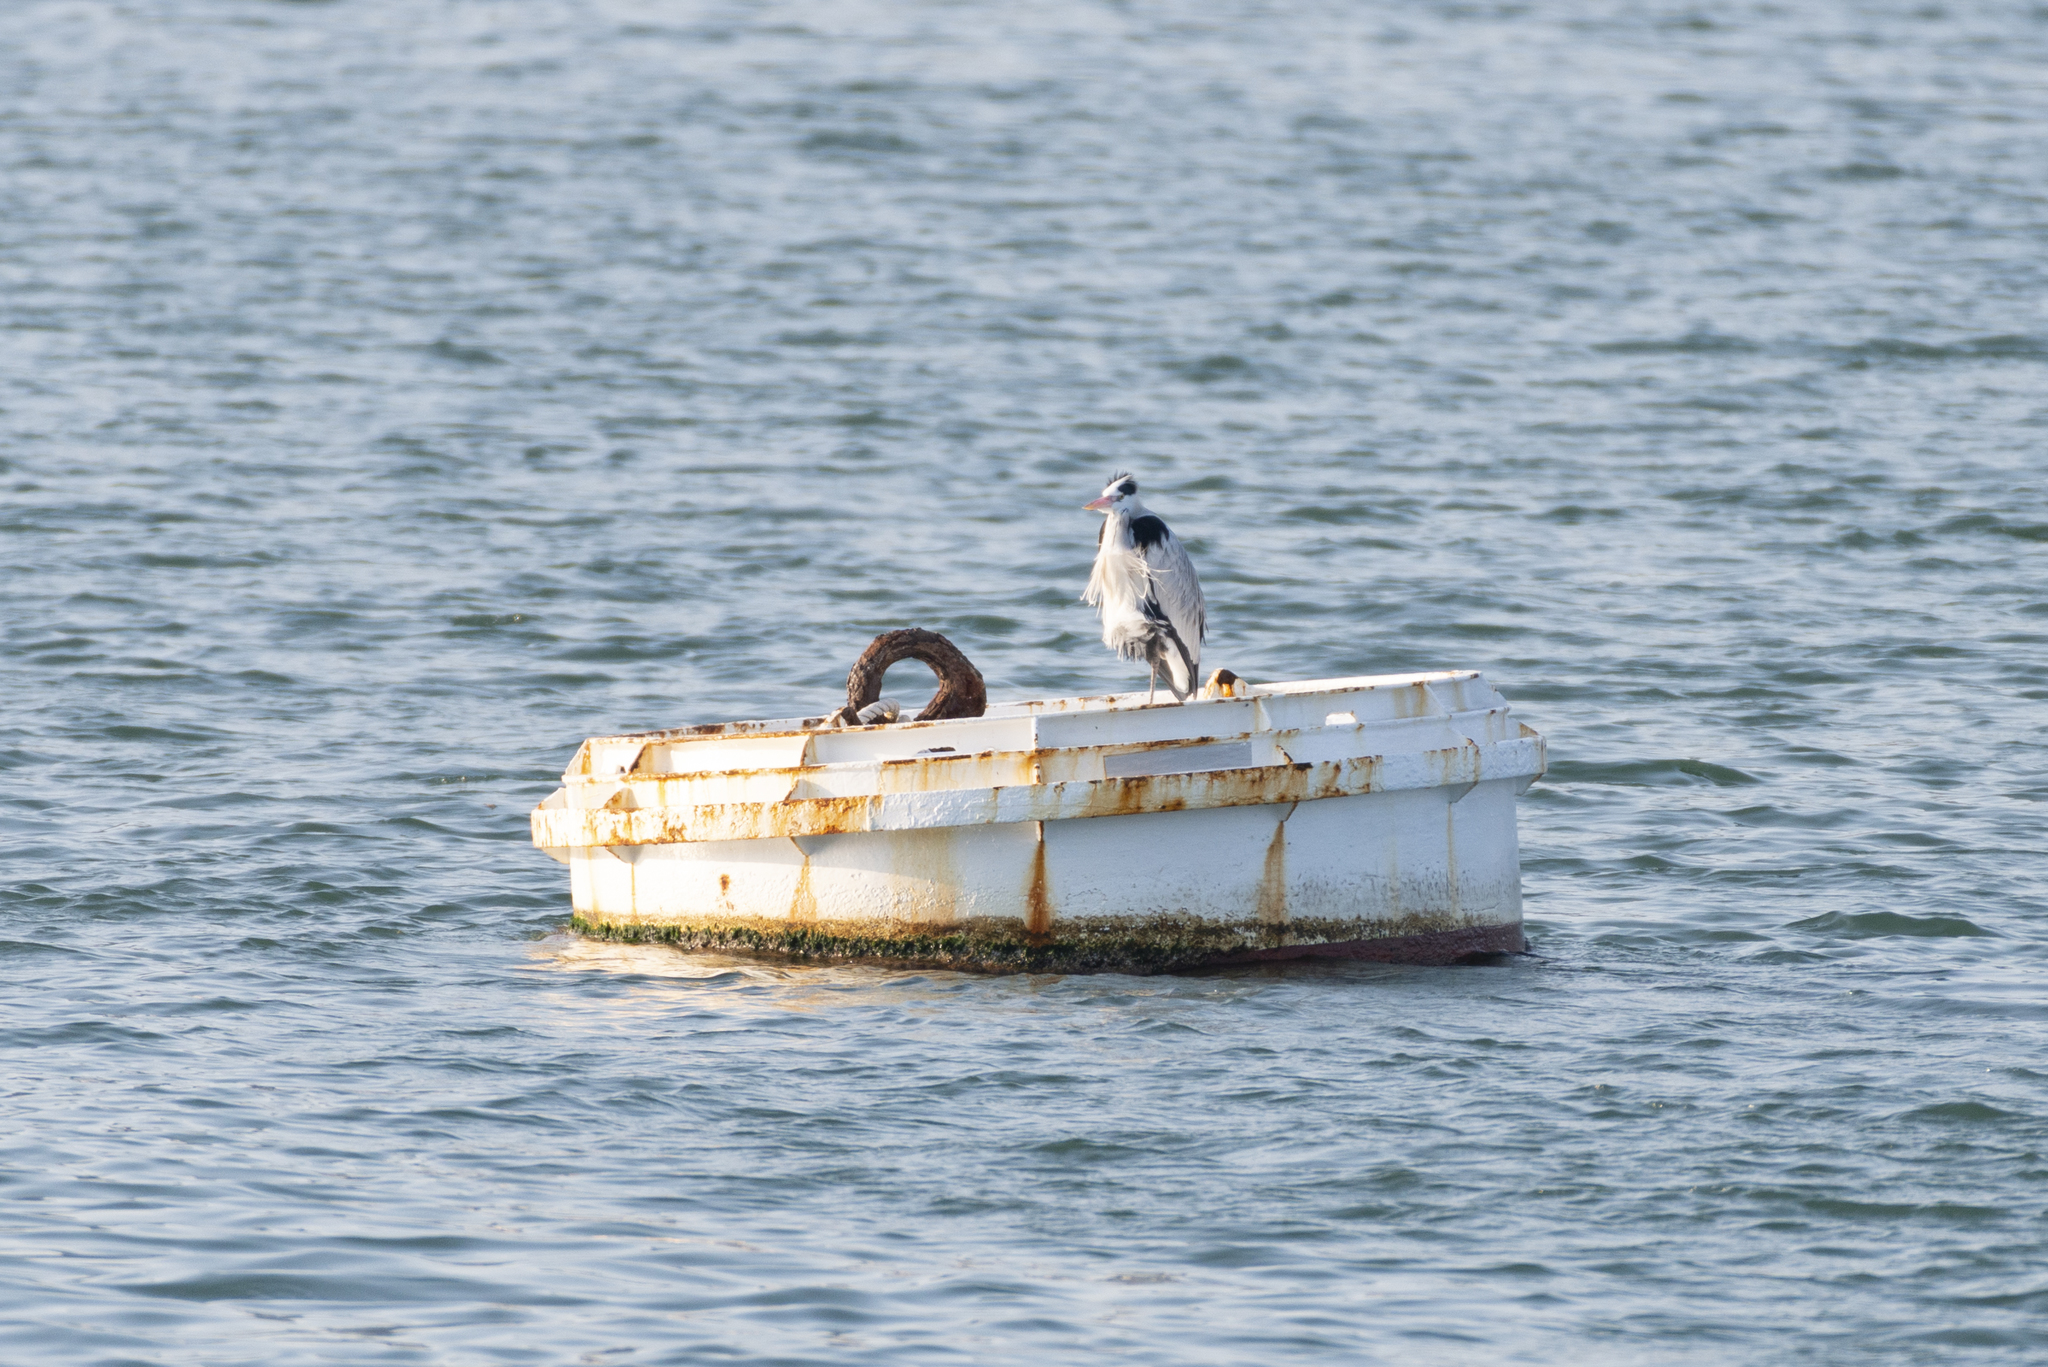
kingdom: Animalia
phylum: Chordata
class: Aves
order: Pelecaniformes
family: Ardeidae
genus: Ardea
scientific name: Ardea cinerea
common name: Grey heron
